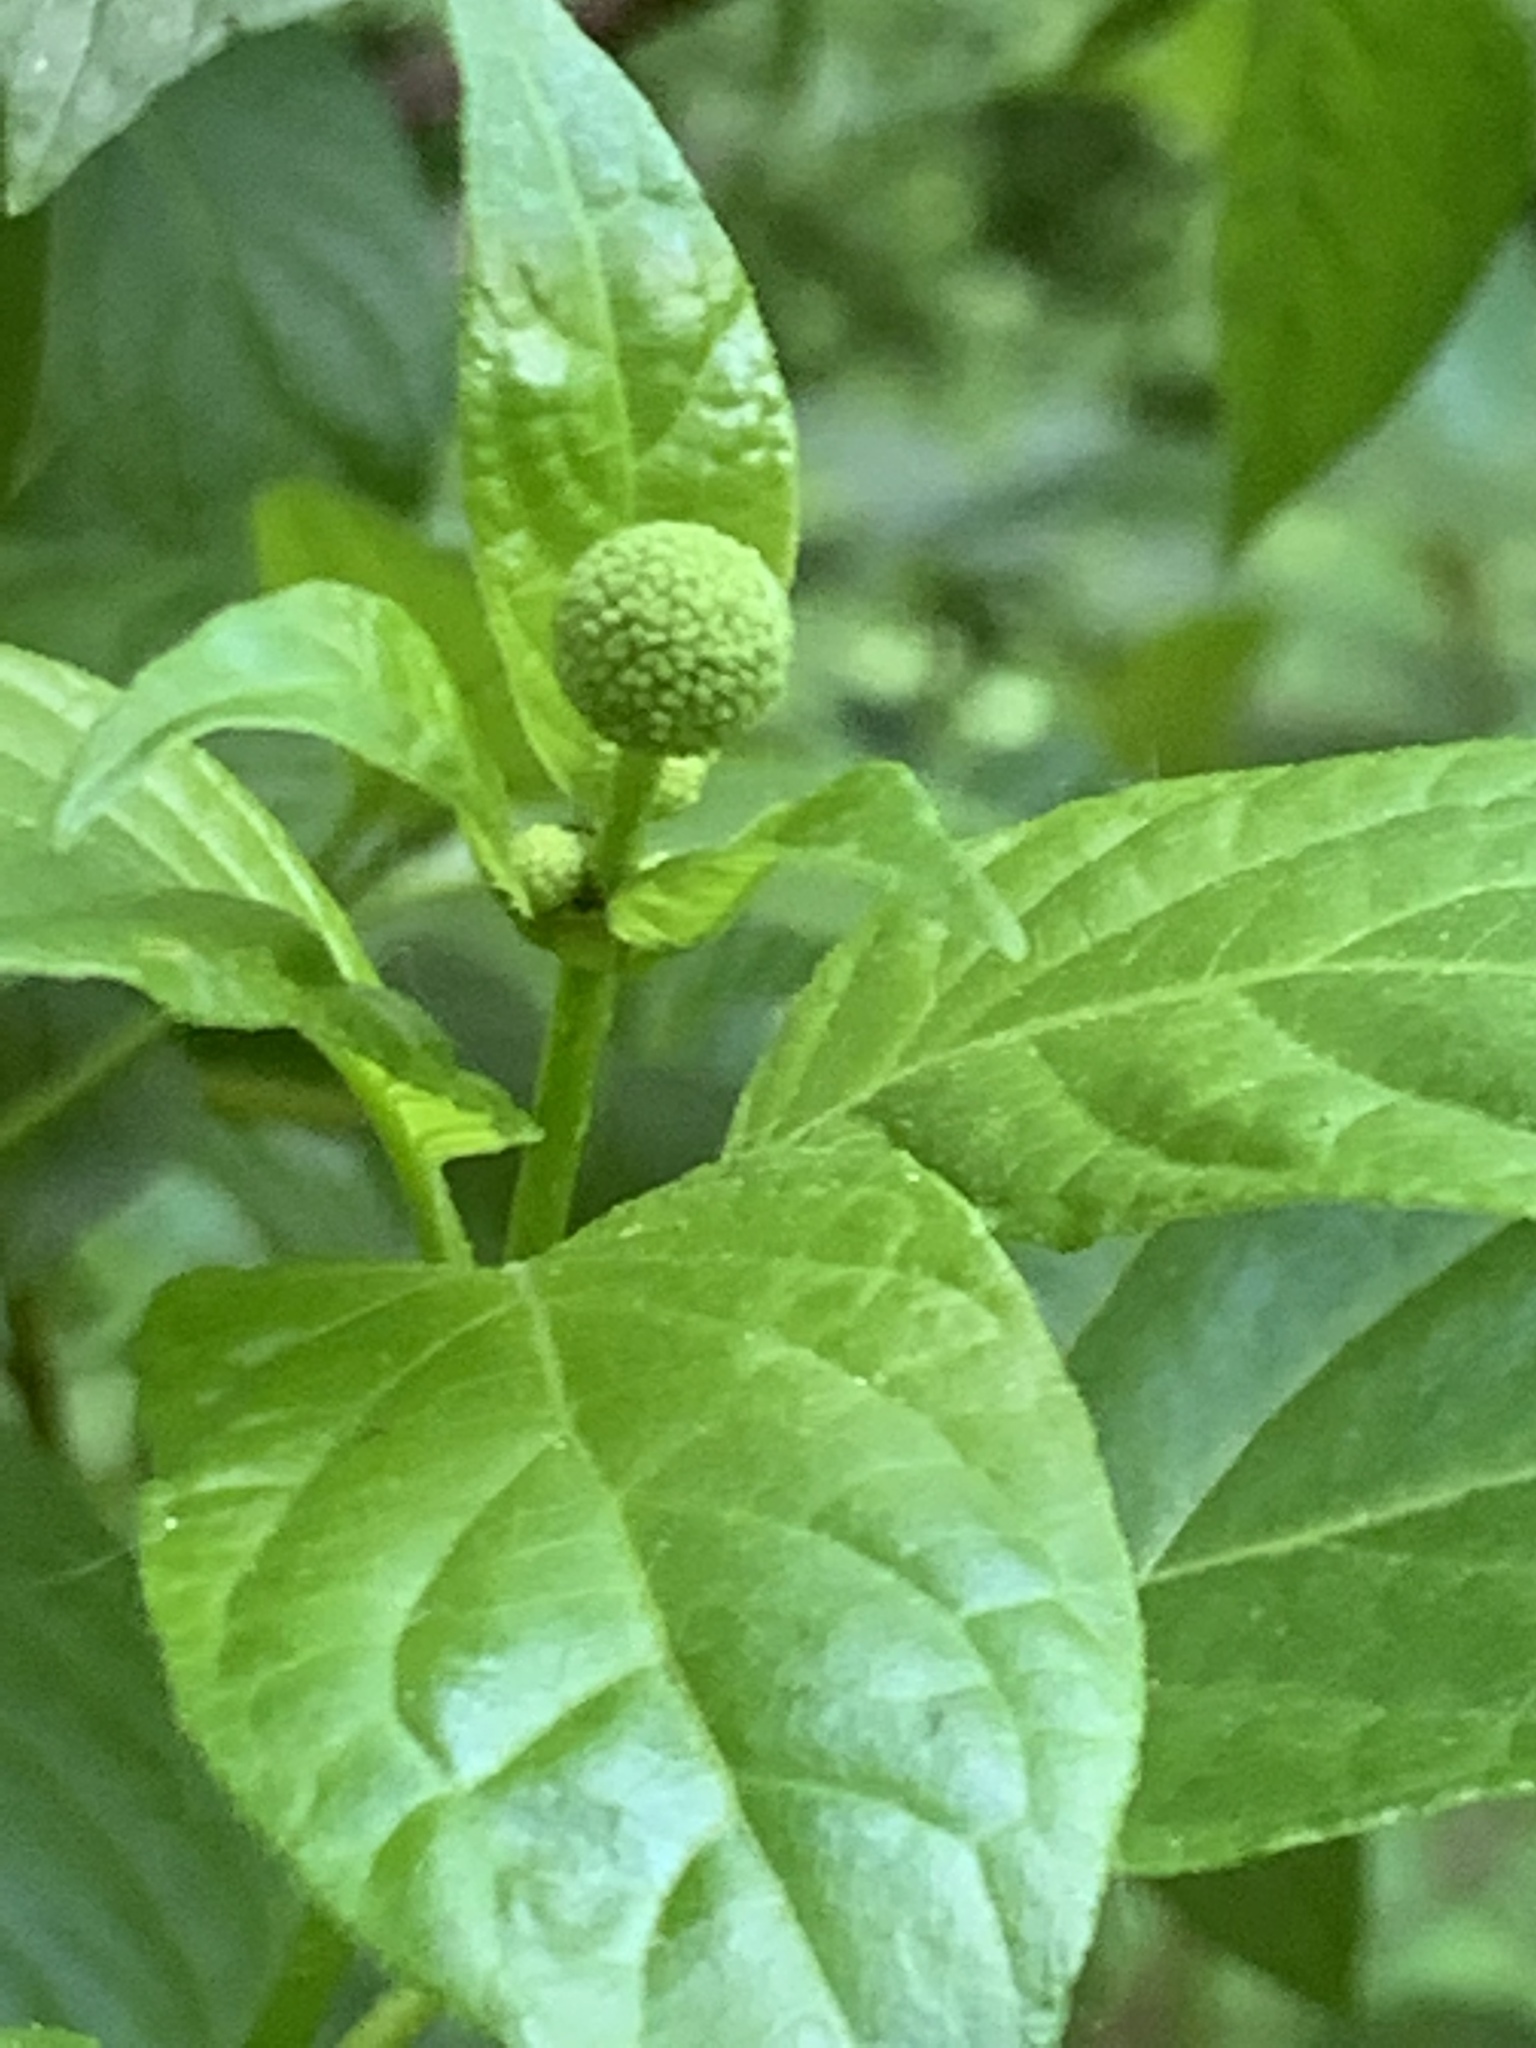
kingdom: Plantae
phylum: Tracheophyta
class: Magnoliopsida
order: Gentianales
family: Rubiaceae
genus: Cephalanthus
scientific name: Cephalanthus occidentalis
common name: Button-willow
